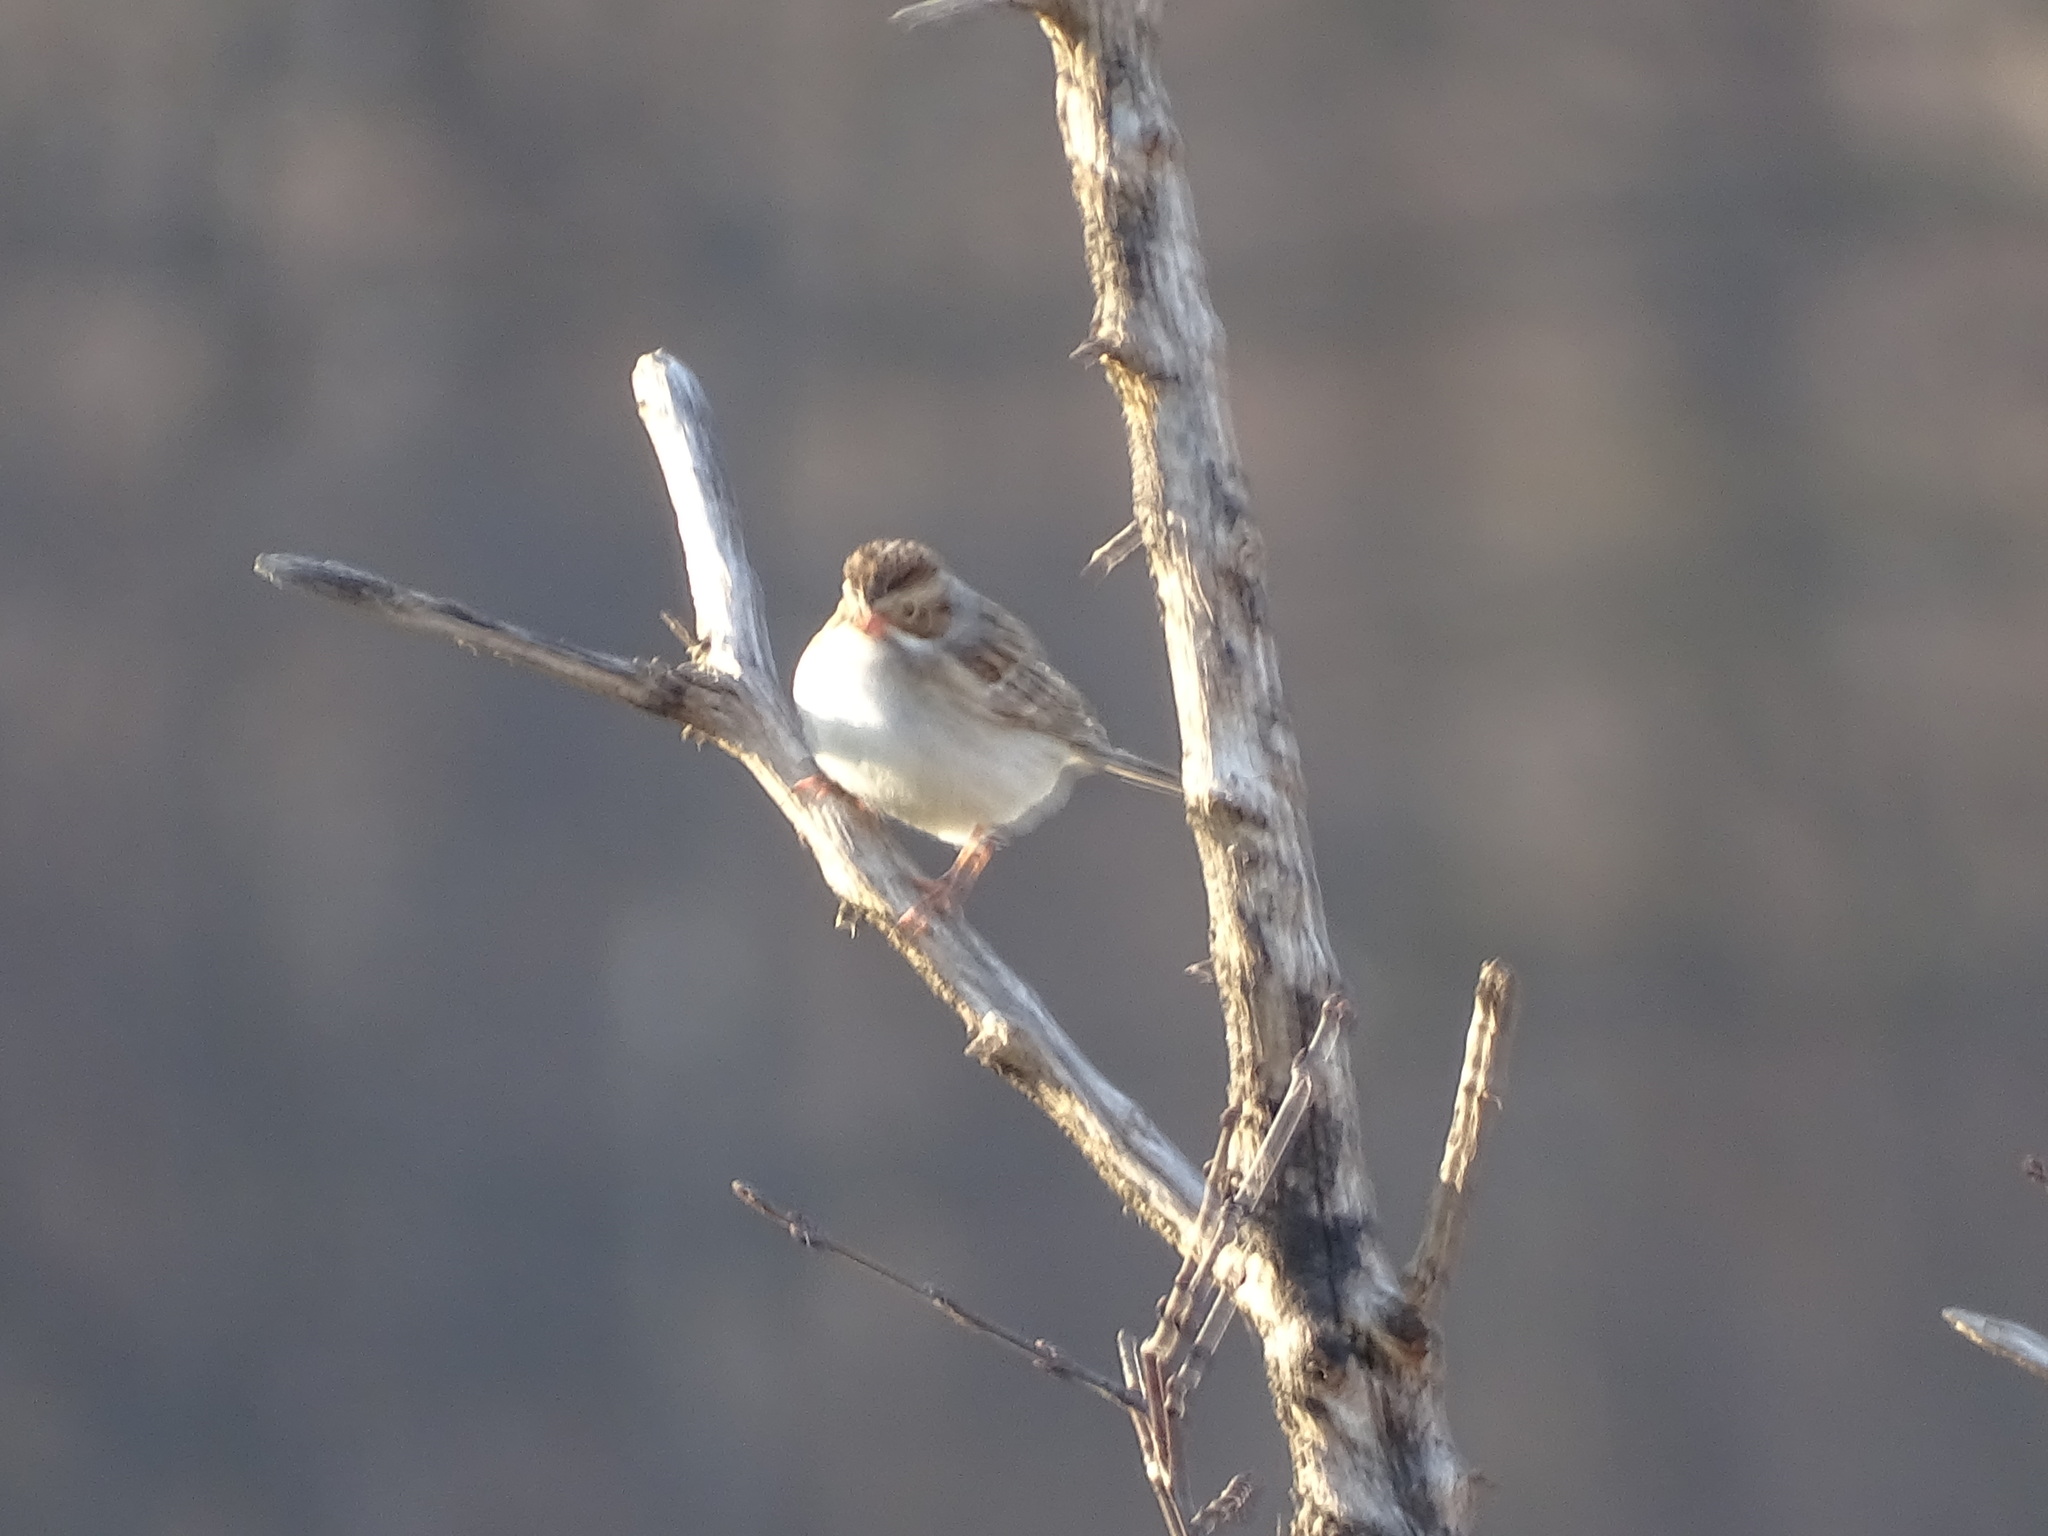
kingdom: Animalia
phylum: Chordata
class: Aves
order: Passeriformes
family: Passerellidae
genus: Spizella
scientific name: Spizella pallida
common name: Clay-colored sparrow
